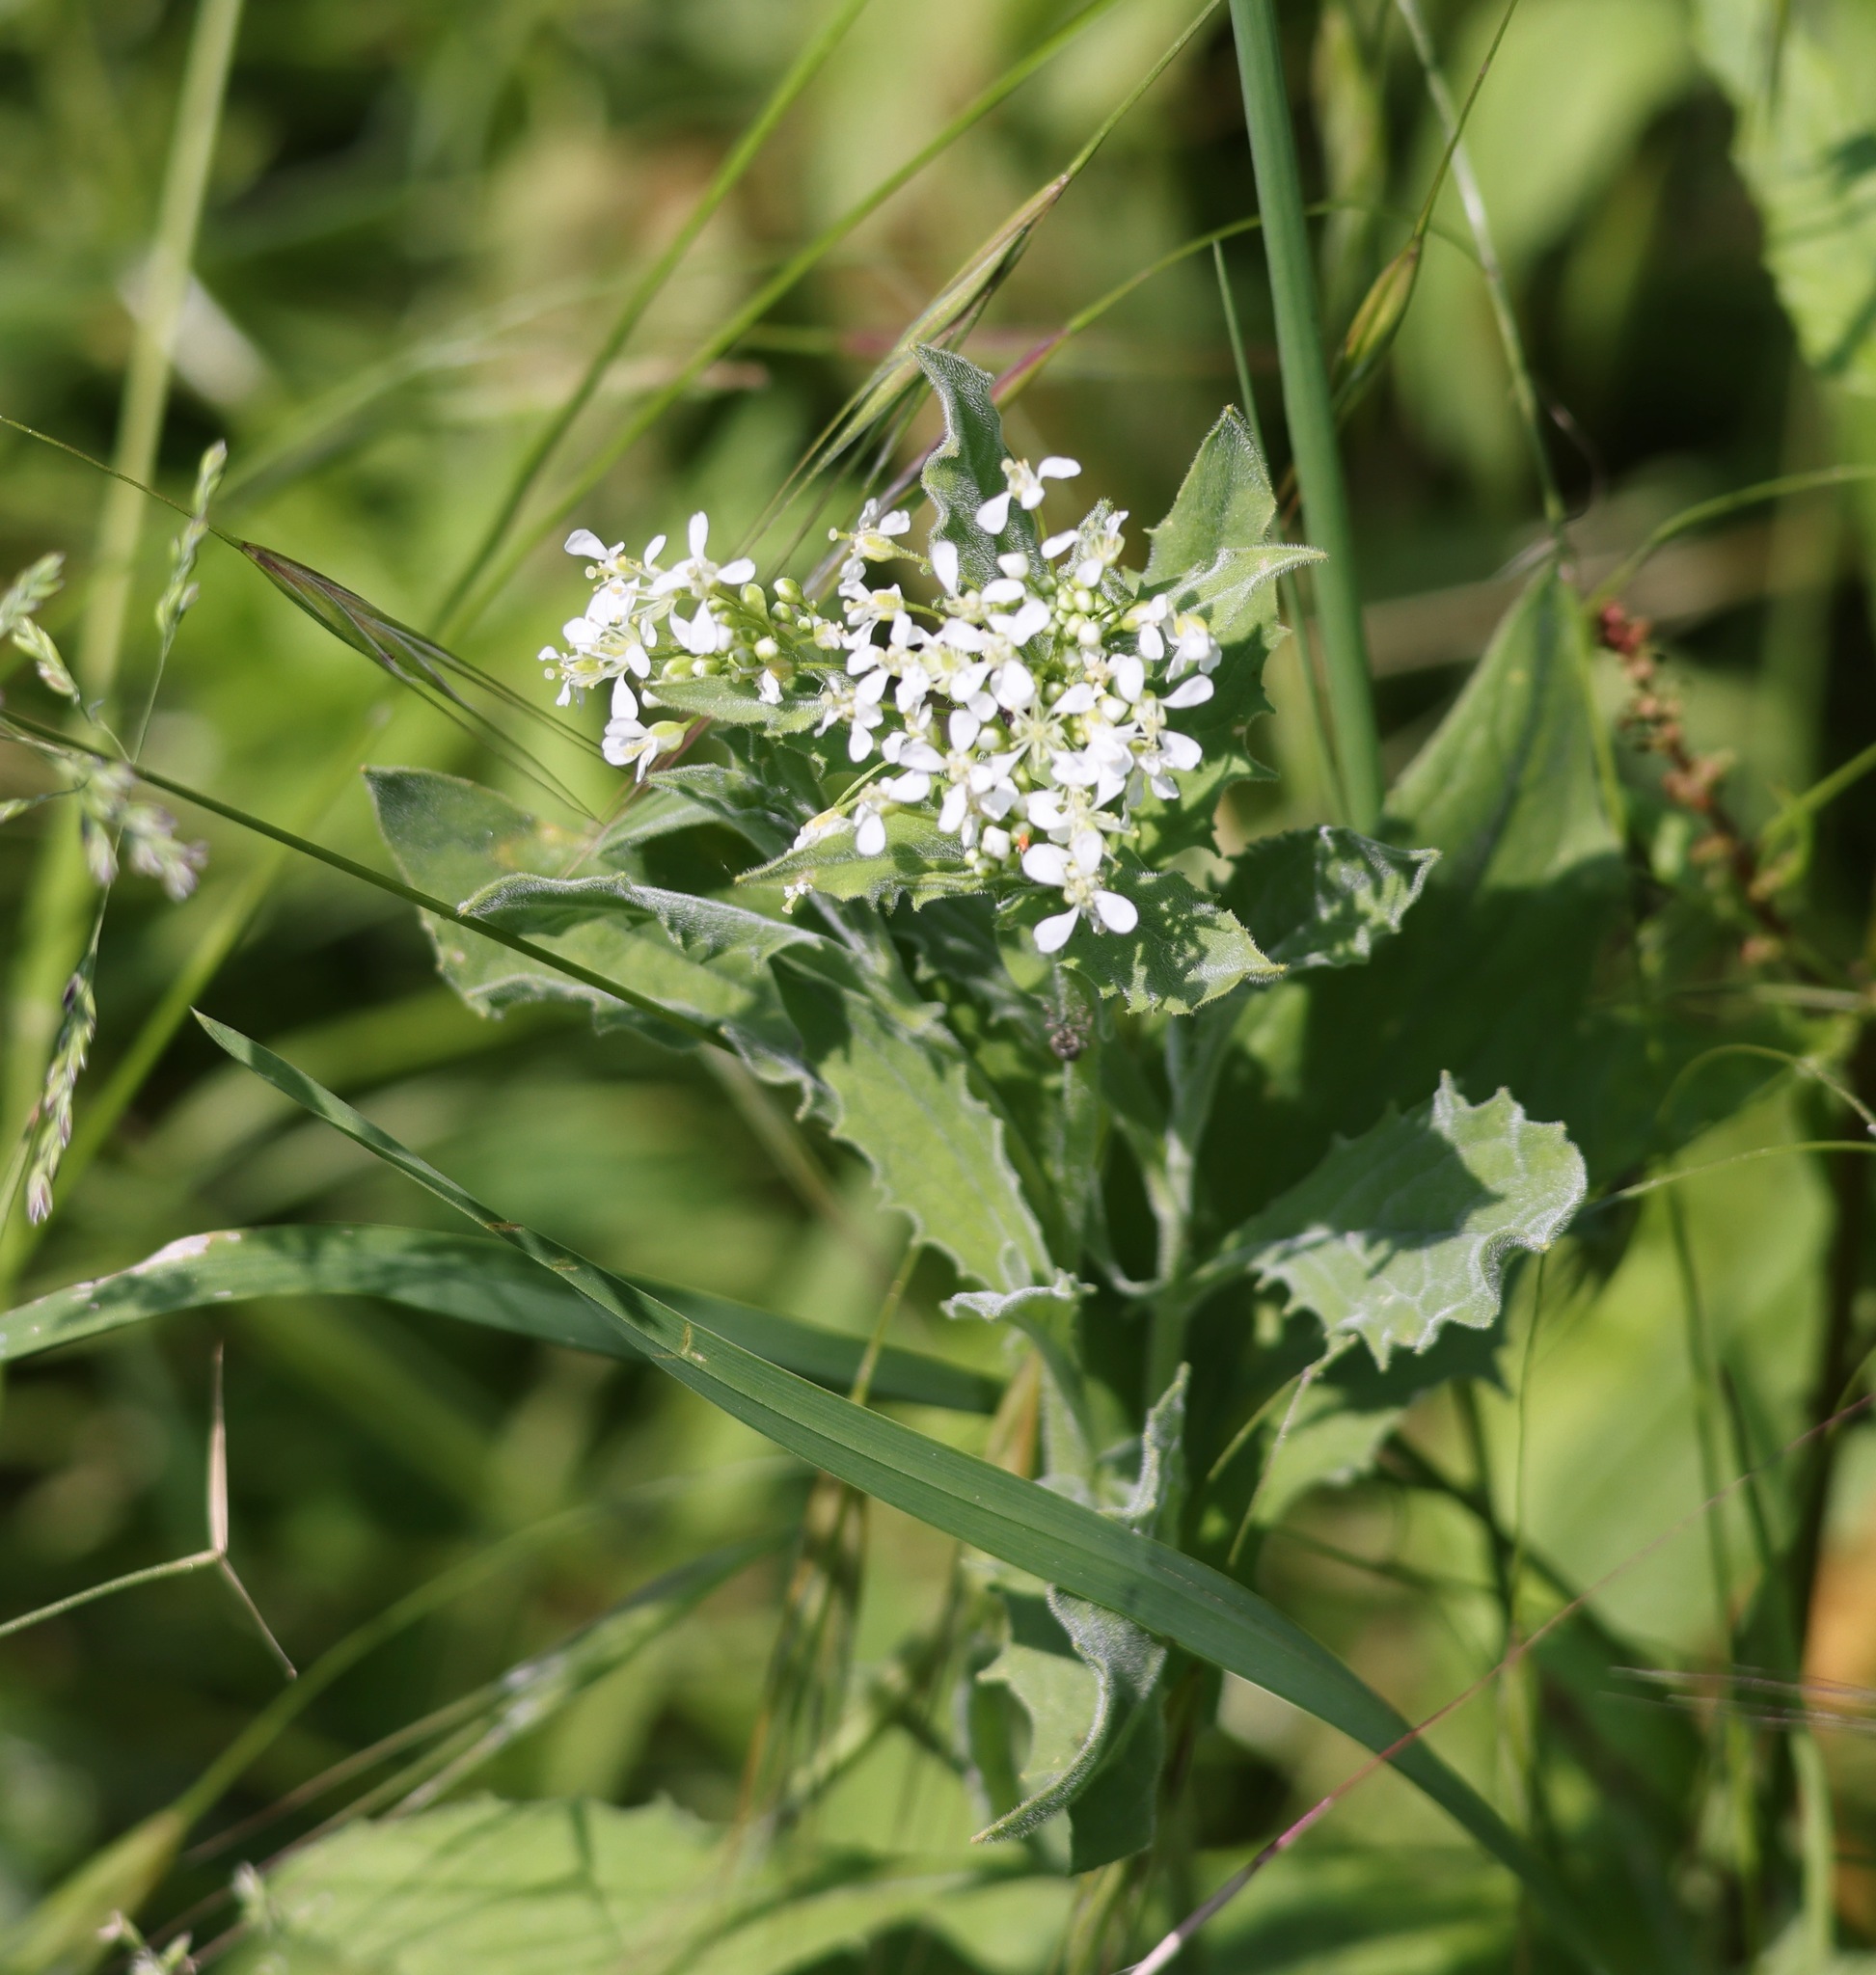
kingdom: Plantae
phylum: Tracheophyta
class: Magnoliopsida
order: Brassicales
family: Brassicaceae
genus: Lepidium
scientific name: Lepidium draba
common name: Hoary cress
